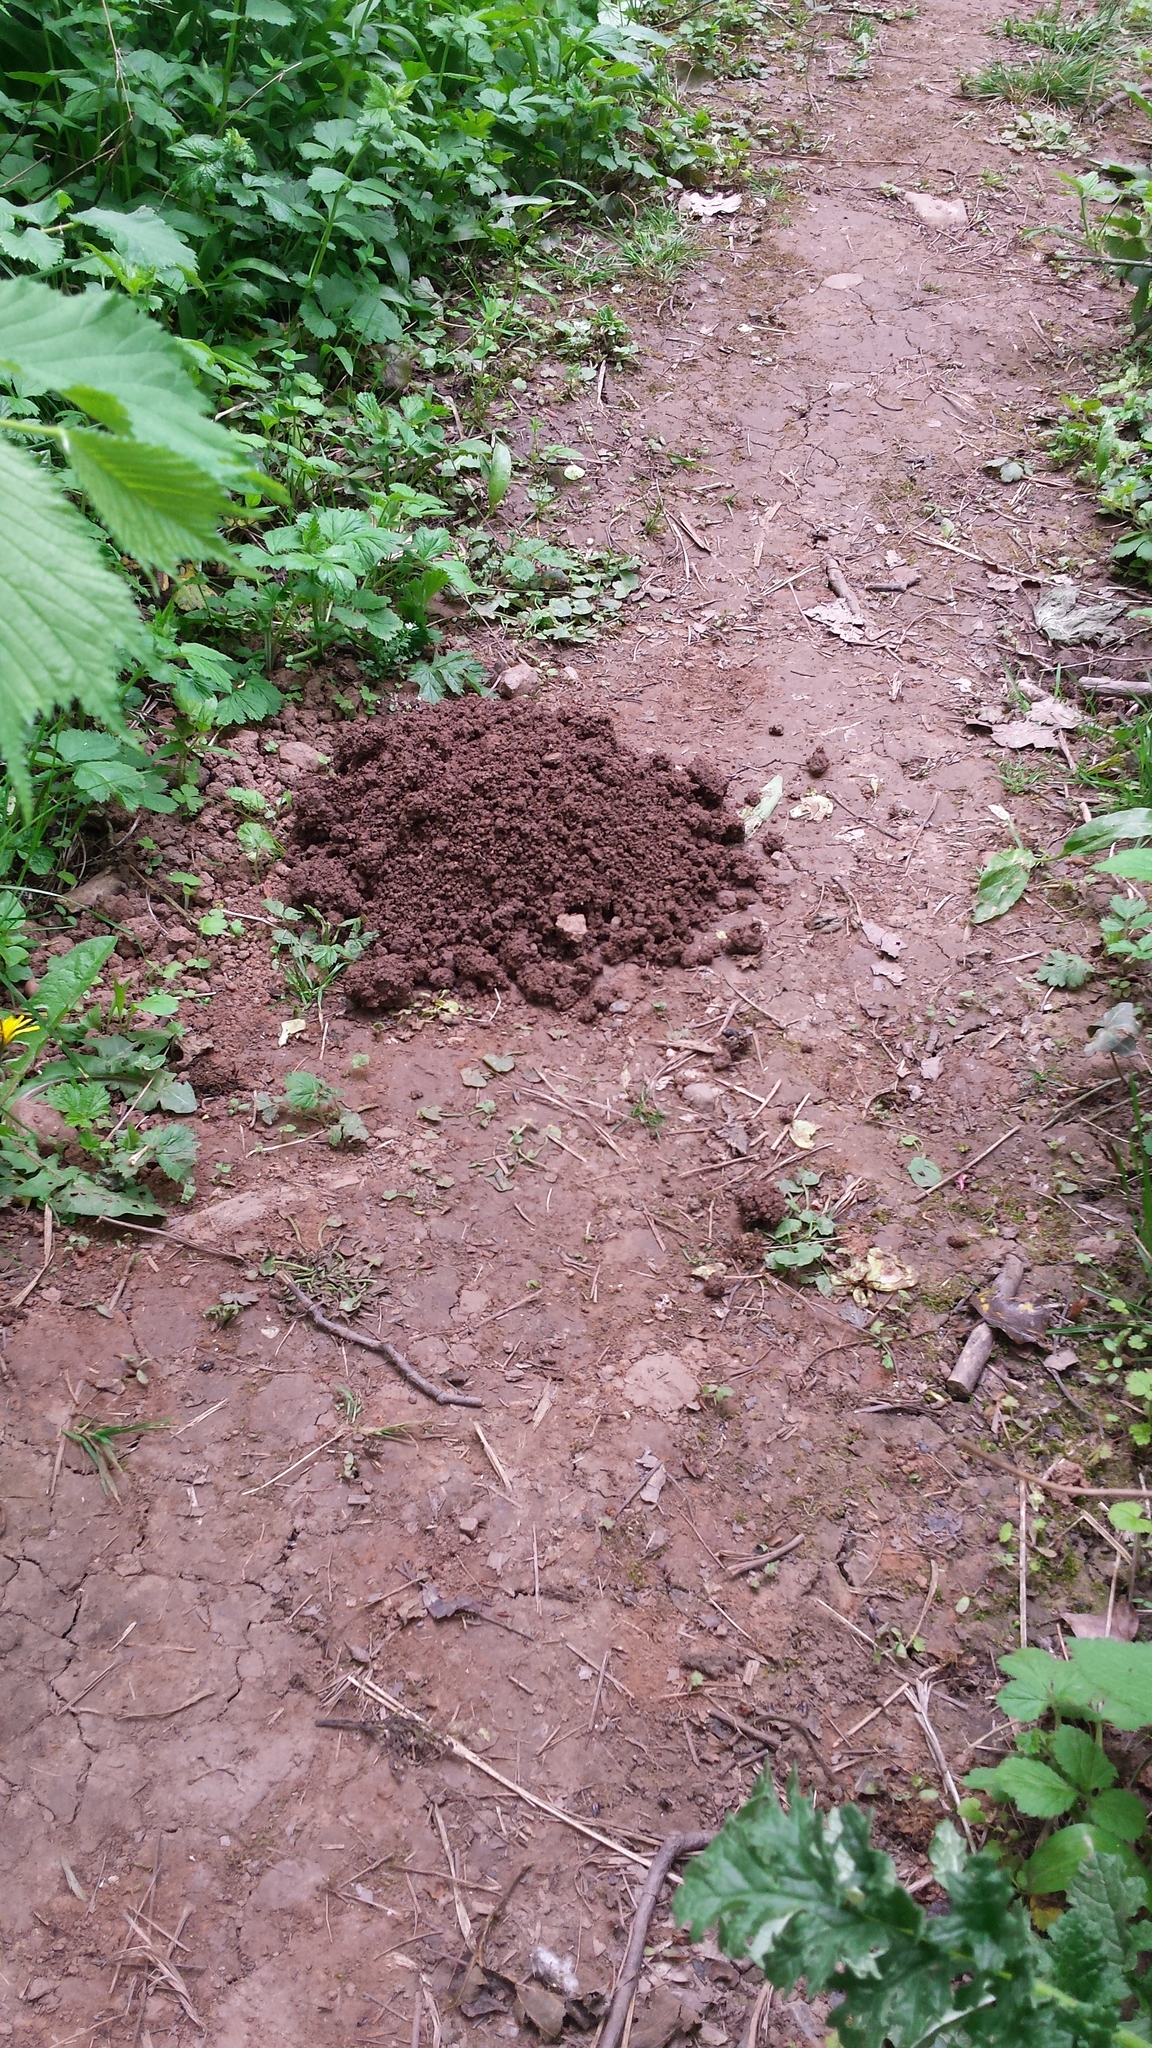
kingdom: Animalia
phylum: Chordata
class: Mammalia
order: Soricomorpha
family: Talpidae
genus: Talpa
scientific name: Talpa europaea
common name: European mole
